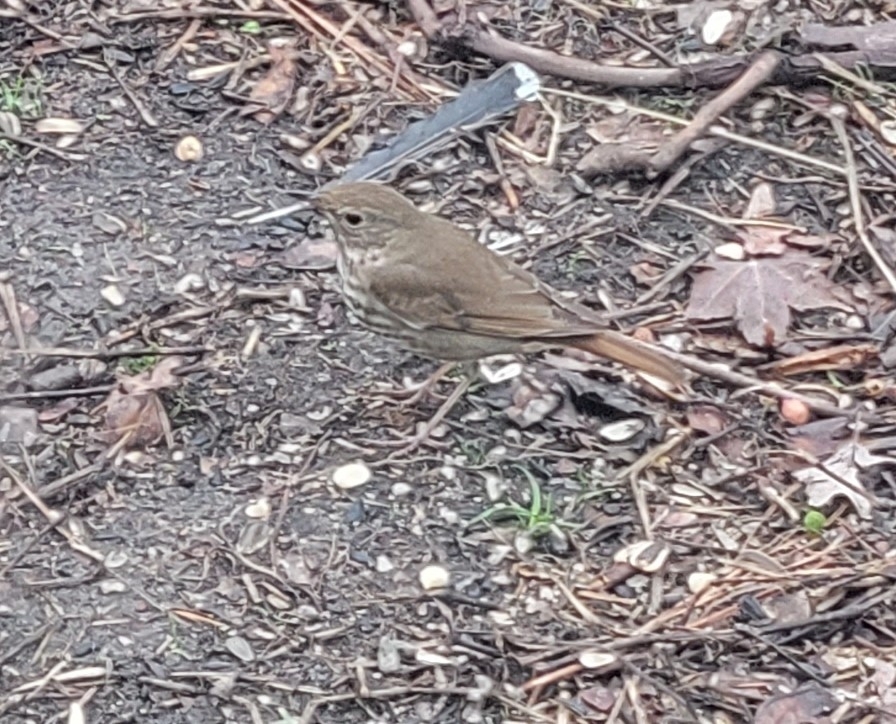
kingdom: Animalia
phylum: Chordata
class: Aves
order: Passeriformes
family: Turdidae
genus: Catharus
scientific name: Catharus guttatus
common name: Hermit thrush
